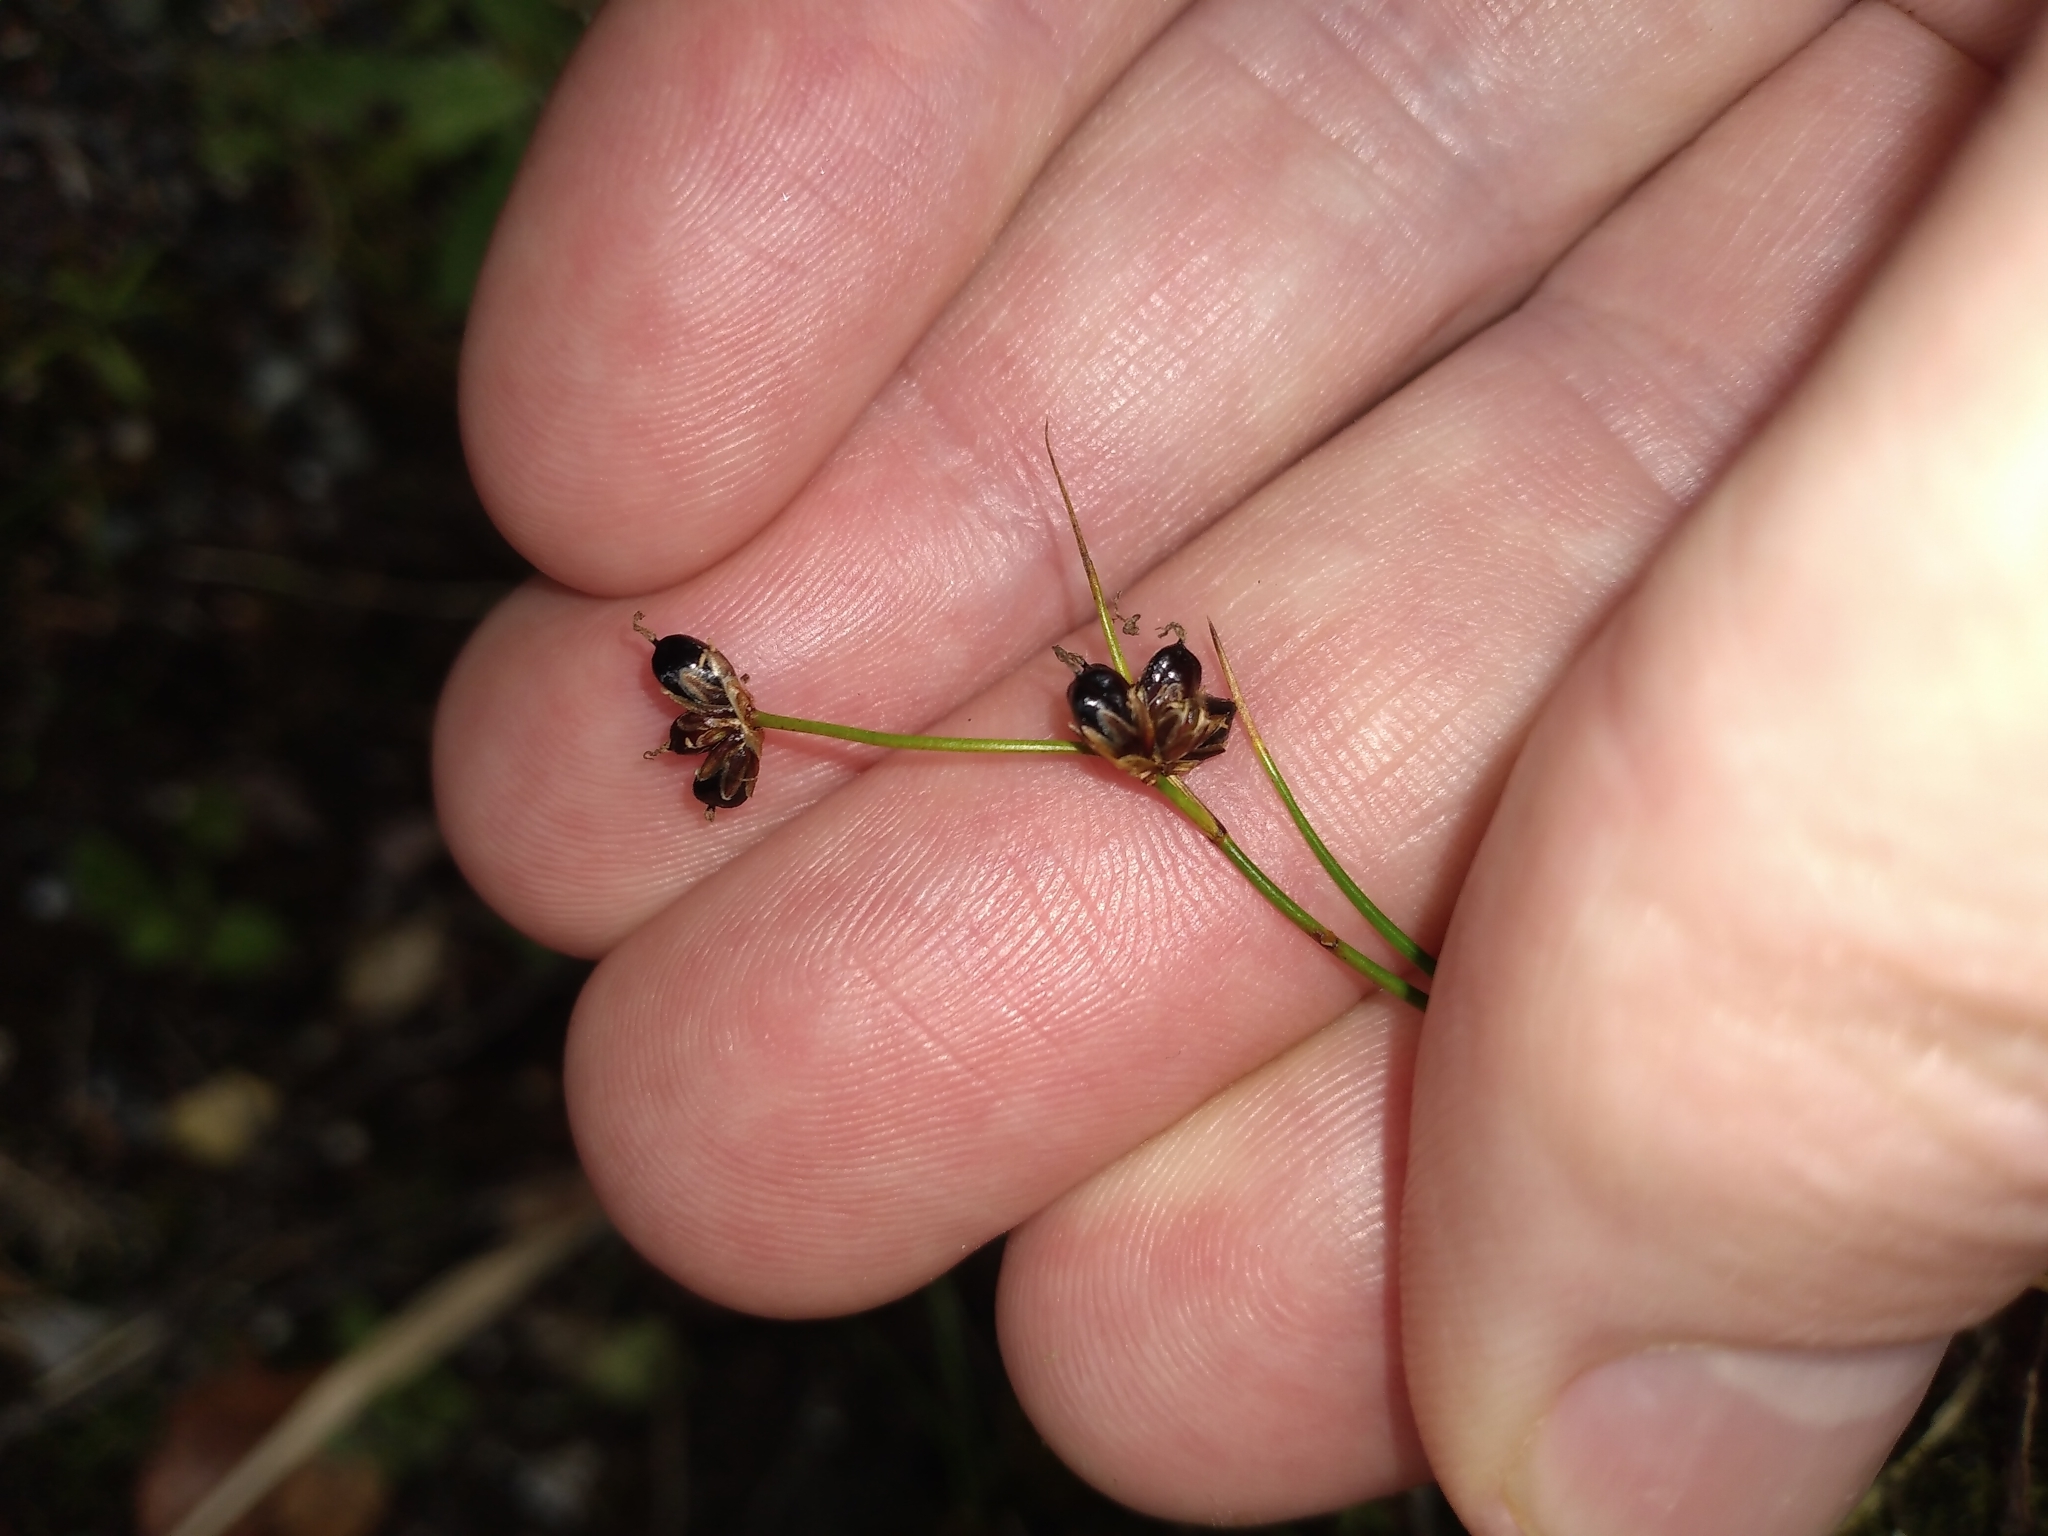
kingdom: Plantae
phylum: Tracheophyta
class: Liliopsida
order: Poales
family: Juncaceae
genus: Juncus
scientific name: Juncus novae-zelandiae
